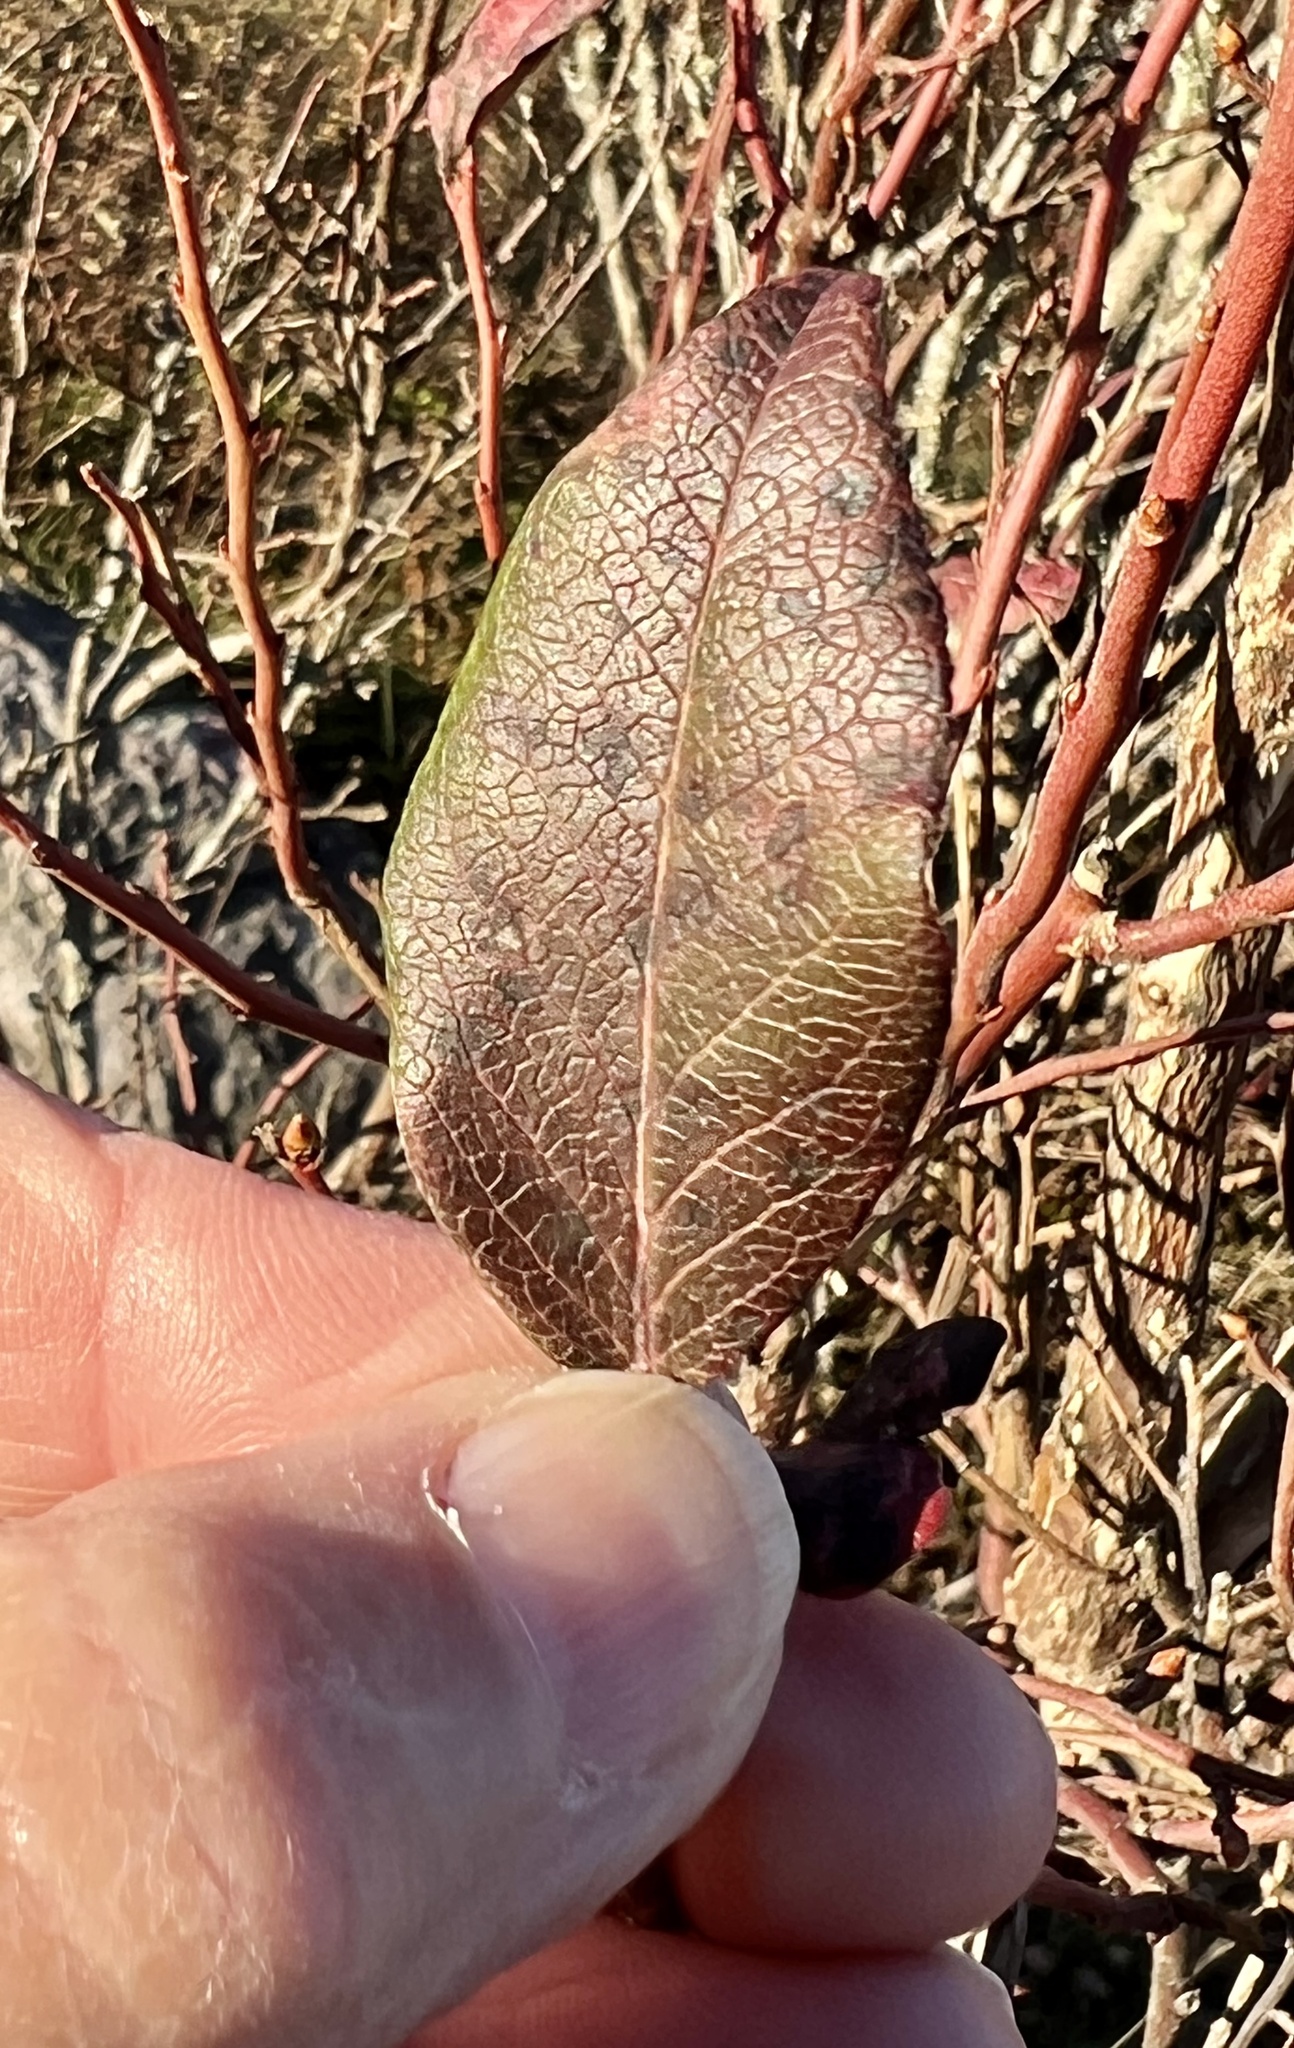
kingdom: Plantae
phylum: Tracheophyta
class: Magnoliopsida
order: Rosales
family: Rosaceae
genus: Sorbus
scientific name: Sorbus americana
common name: American mountain-ash
